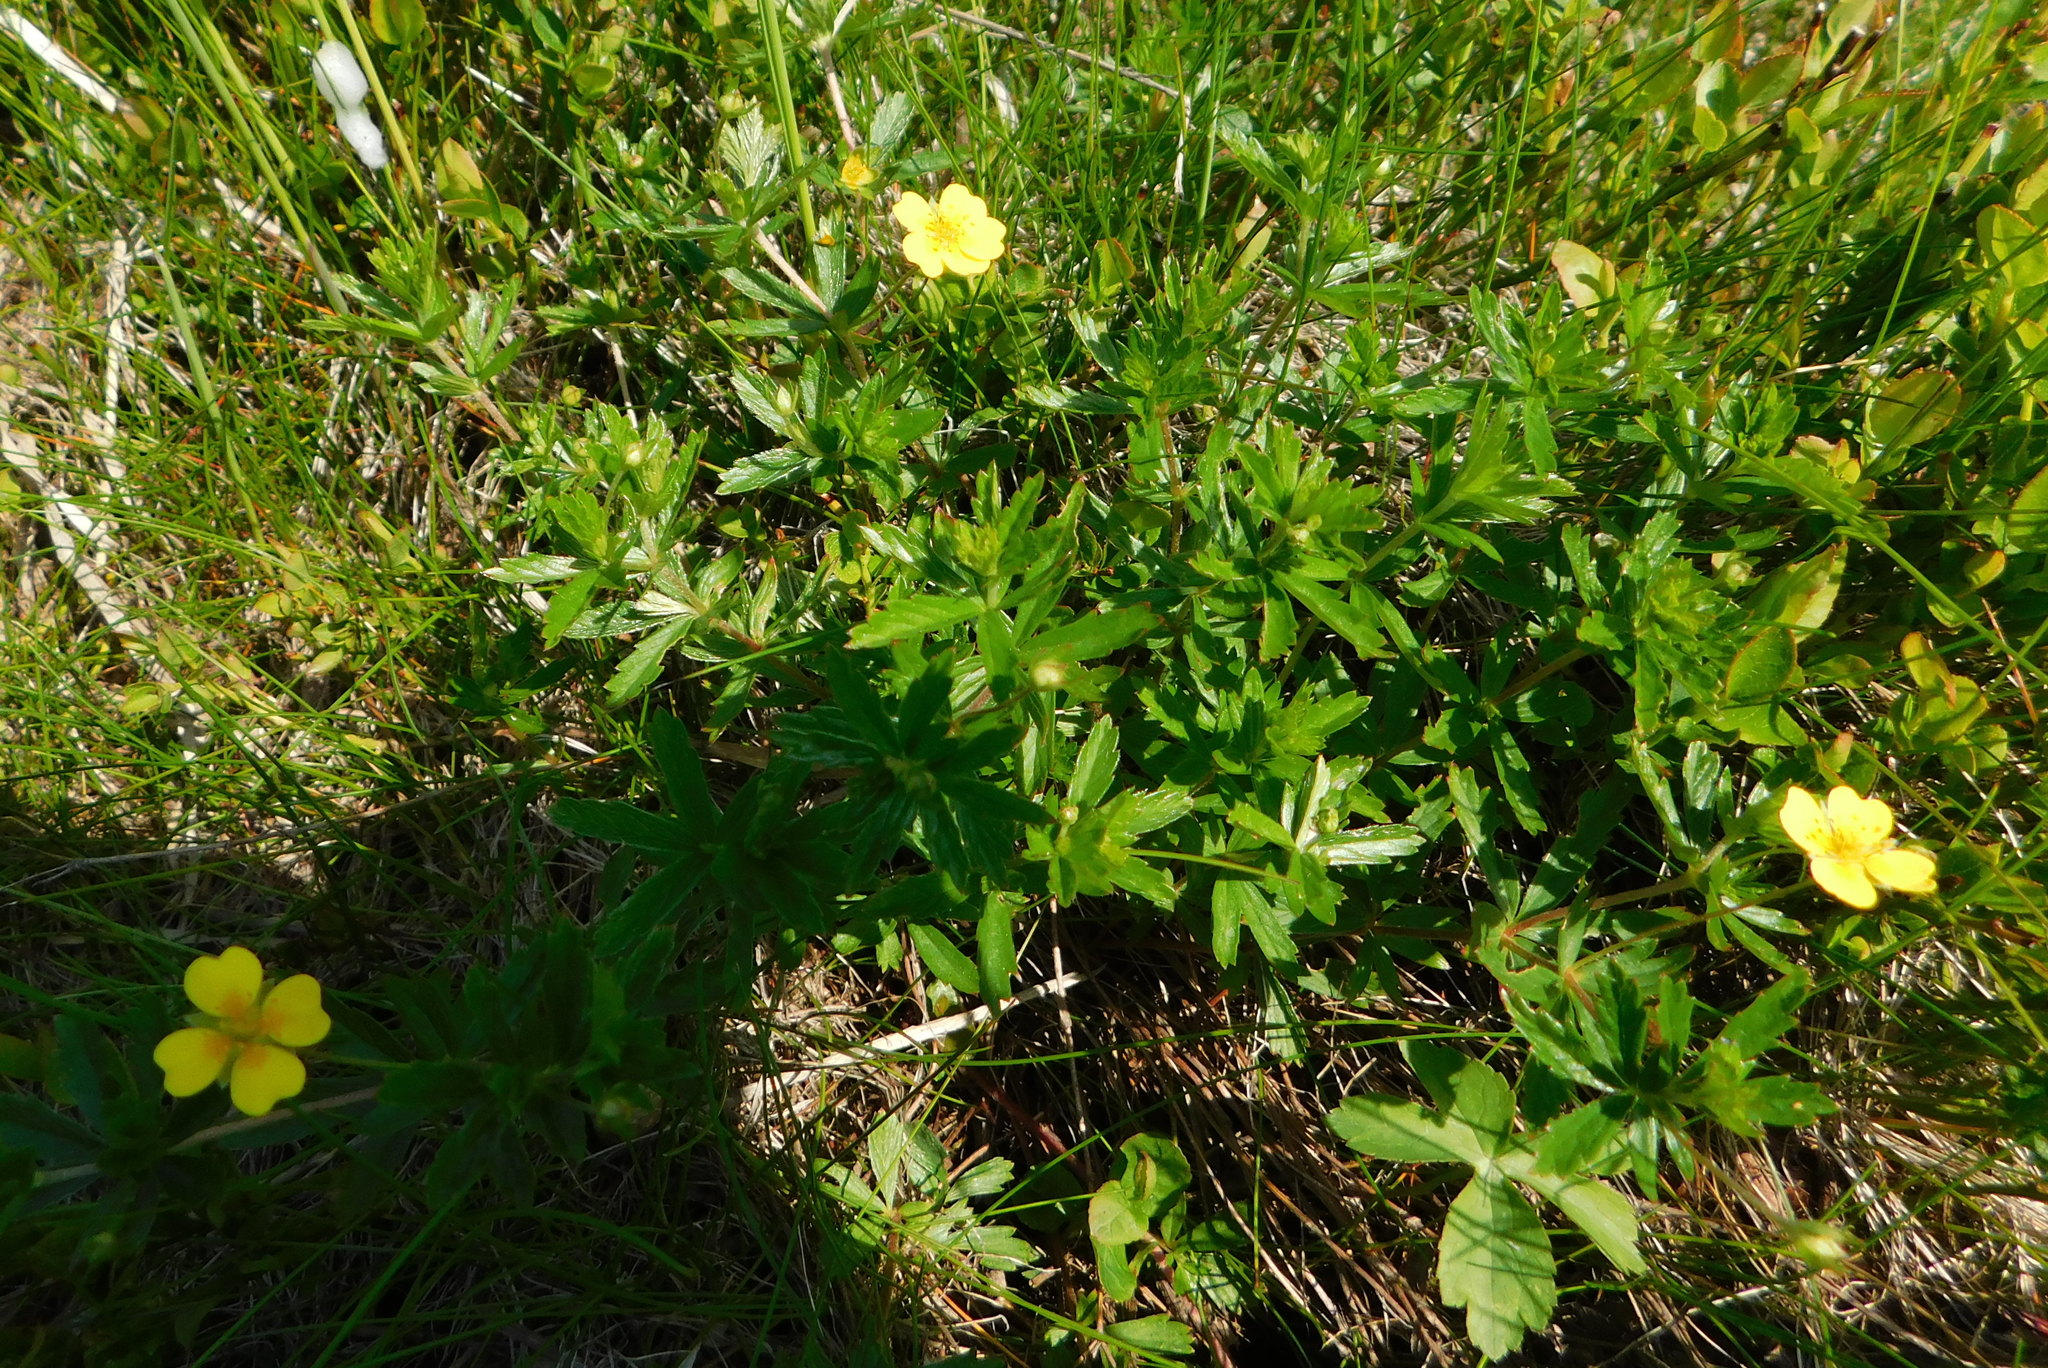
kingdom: Plantae
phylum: Tracheophyta
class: Magnoliopsida
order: Rosales
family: Rosaceae
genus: Potentilla
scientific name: Potentilla erecta
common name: Tormentil
